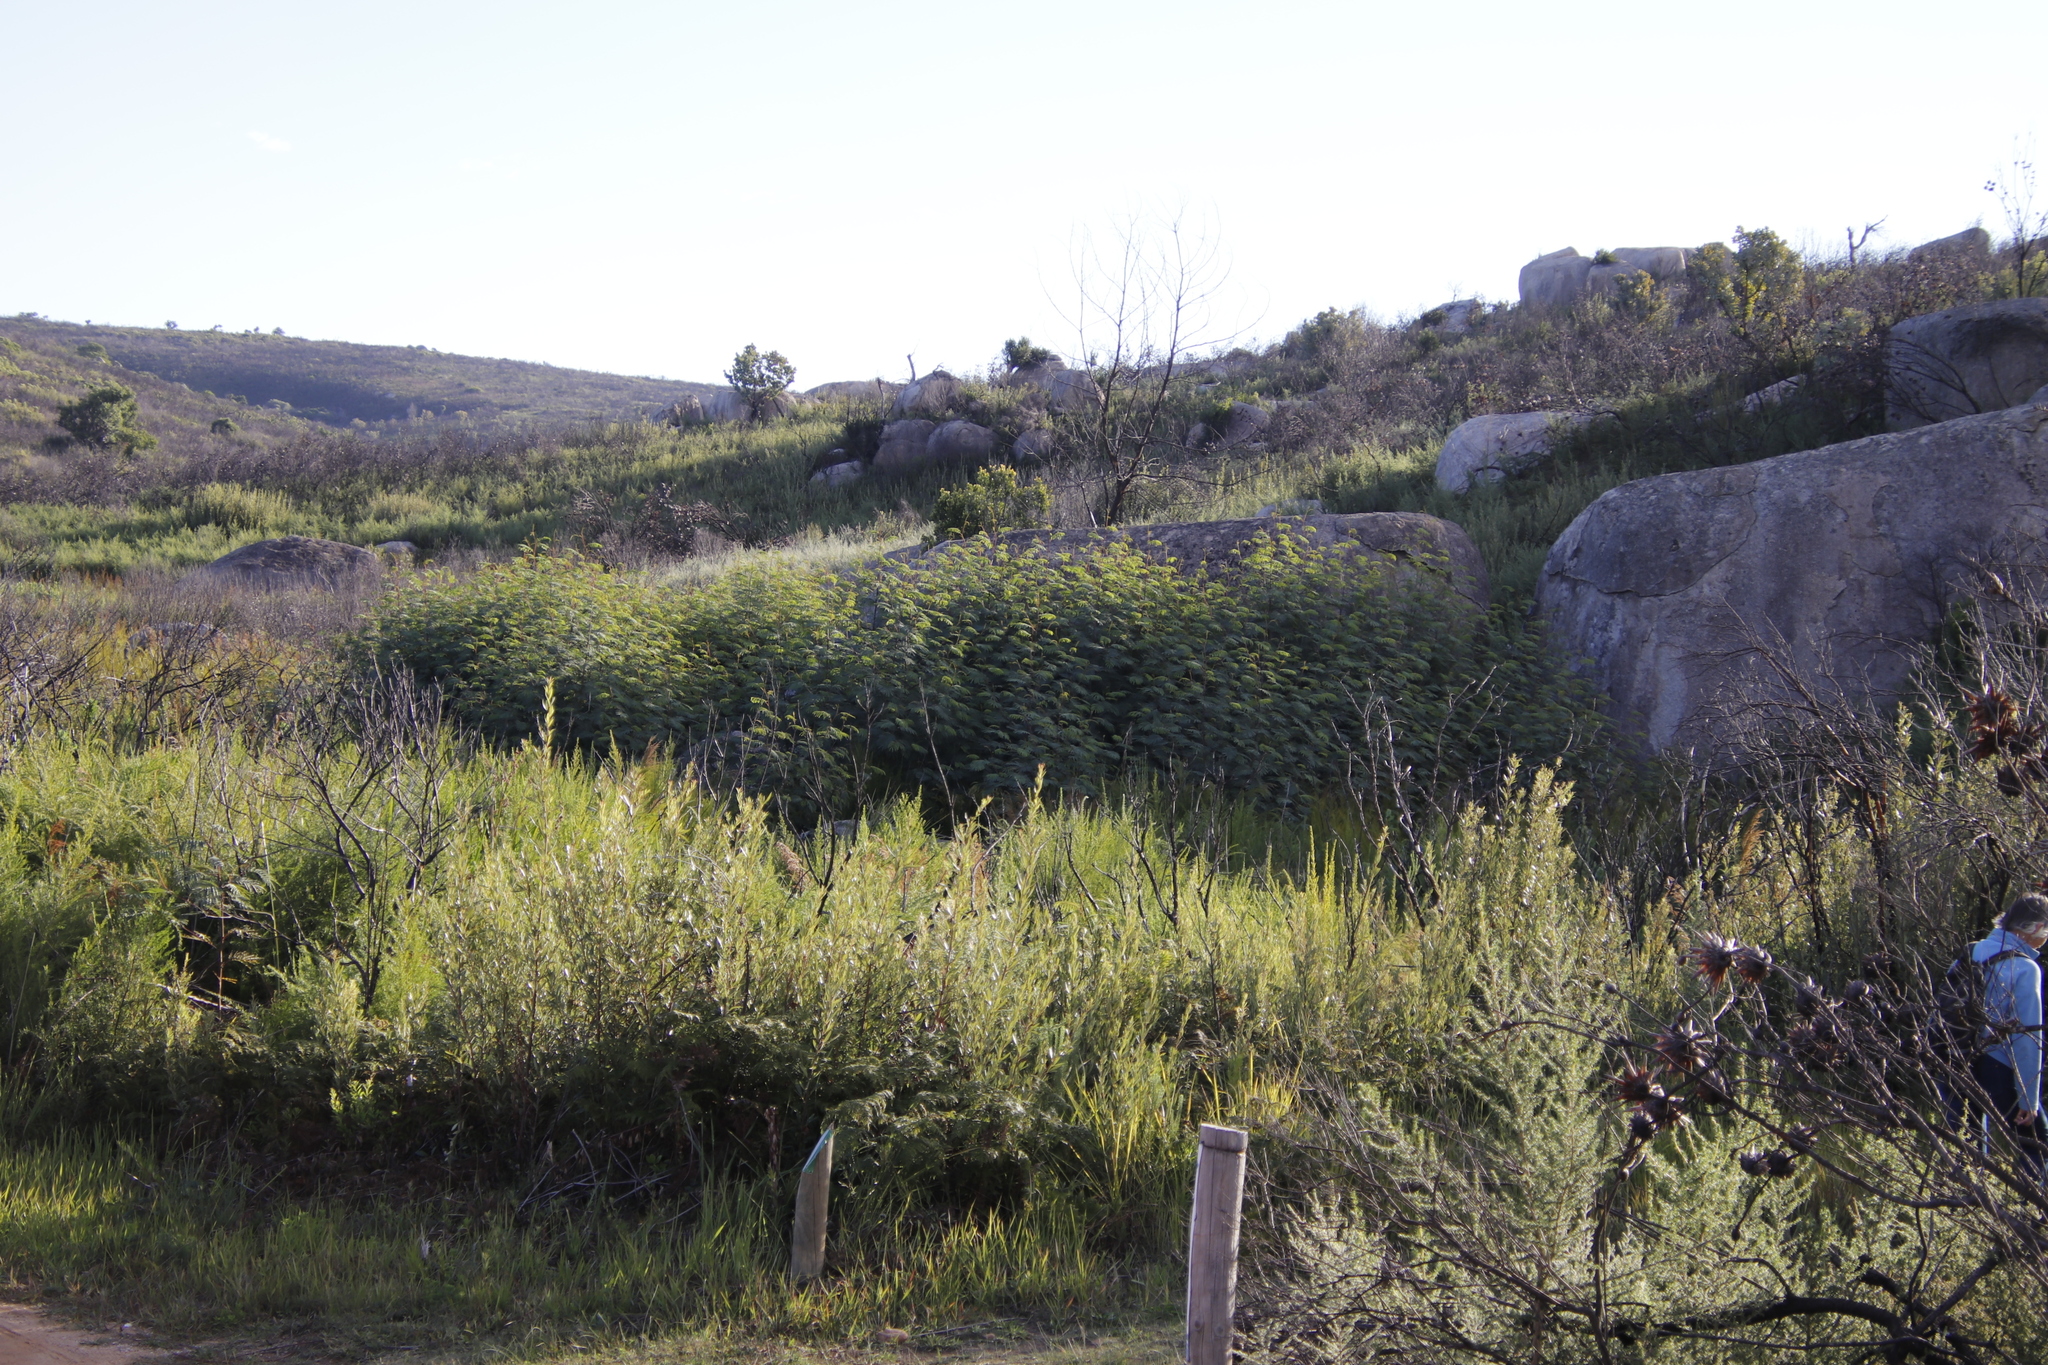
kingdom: Plantae
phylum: Tracheophyta
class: Magnoliopsida
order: Fabales
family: Fabaceae
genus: Paraserianthes
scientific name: Paraserianthes lophantha
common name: Plume albizia
